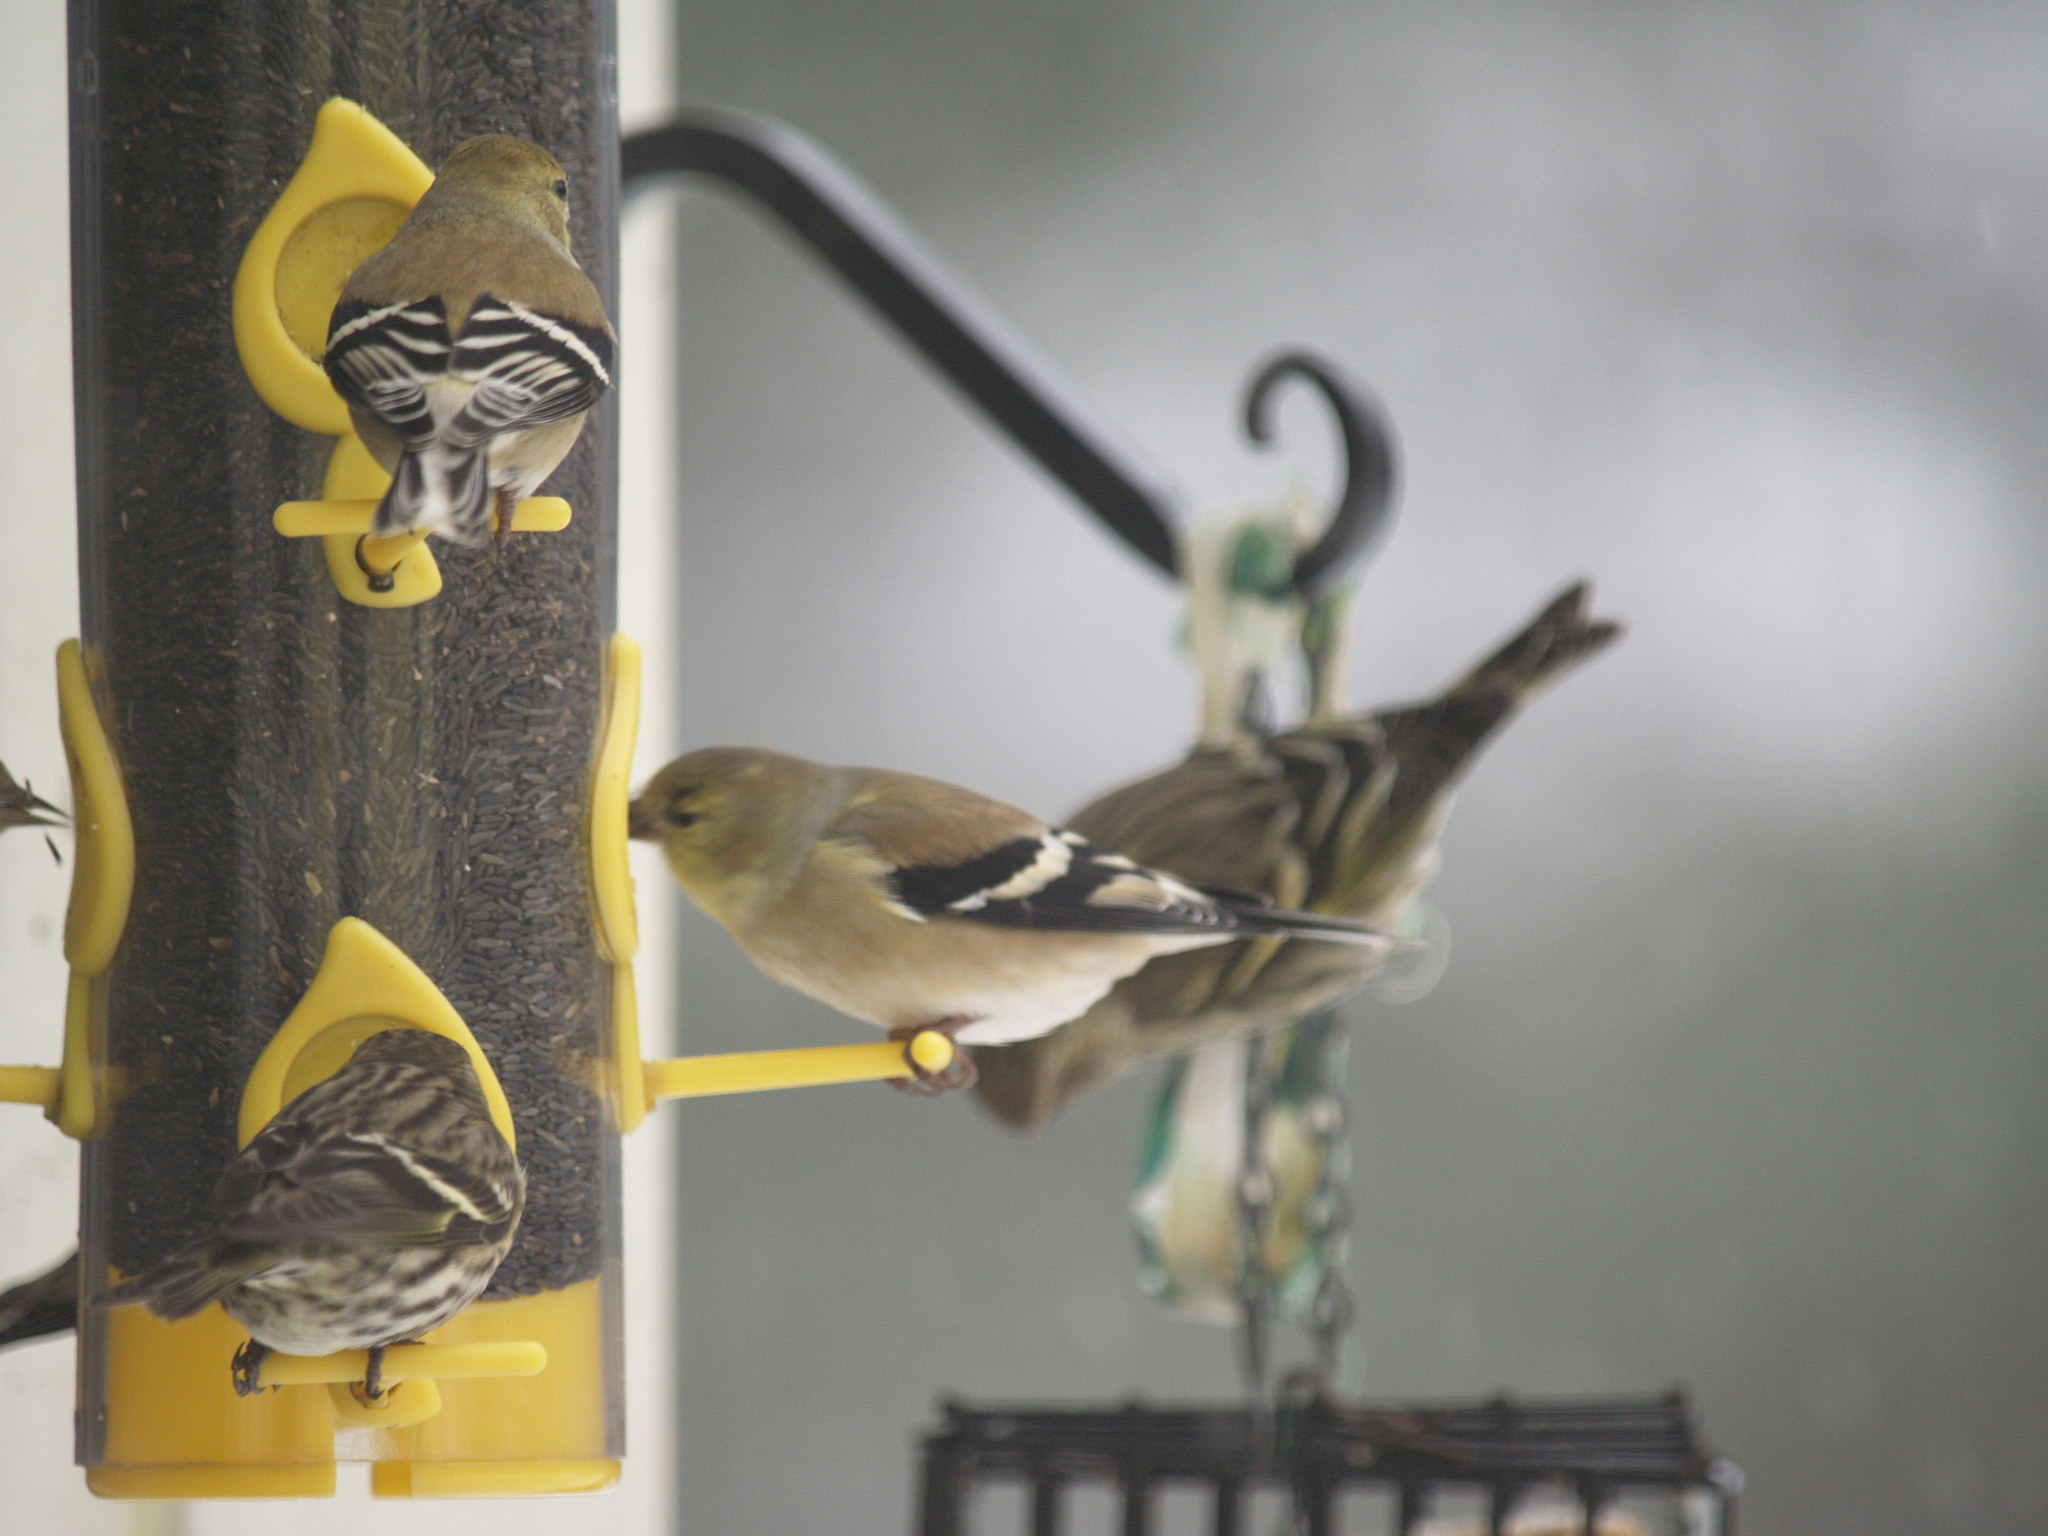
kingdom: Animalia
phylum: Chordata
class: Aves
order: Passeriformes
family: Fringillidae
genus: Spinus
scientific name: Spinus tristis
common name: American goldfinch
